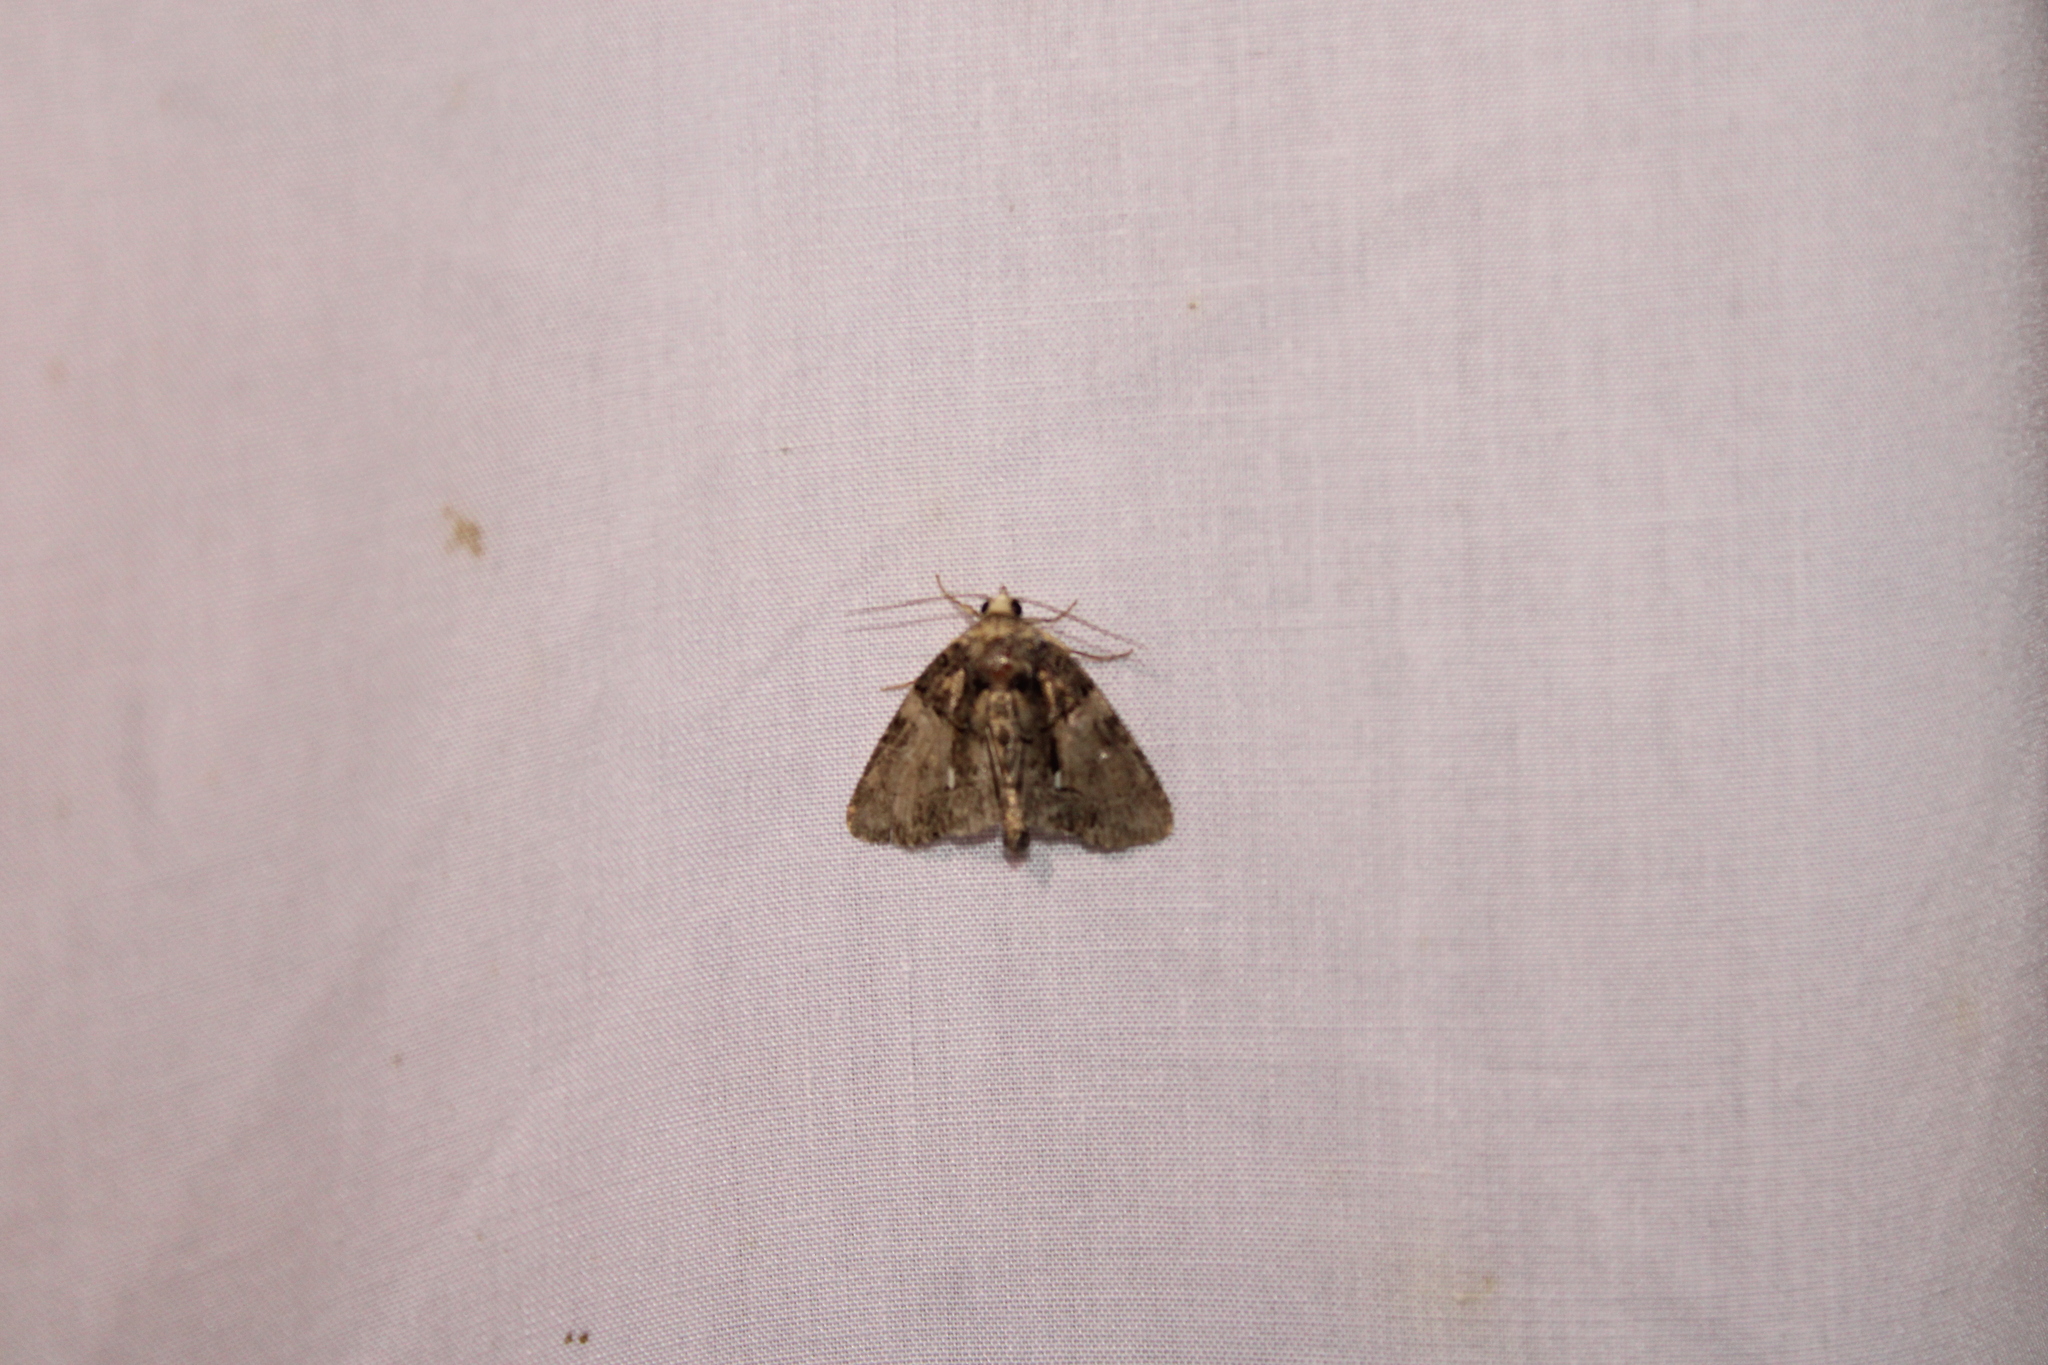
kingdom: Animalia
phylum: Arthropoda
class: Insecta
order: Lepidoptera
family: Noctuidae
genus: Chytonix
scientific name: Chytonix palliatricula
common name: Cloaked marvel
